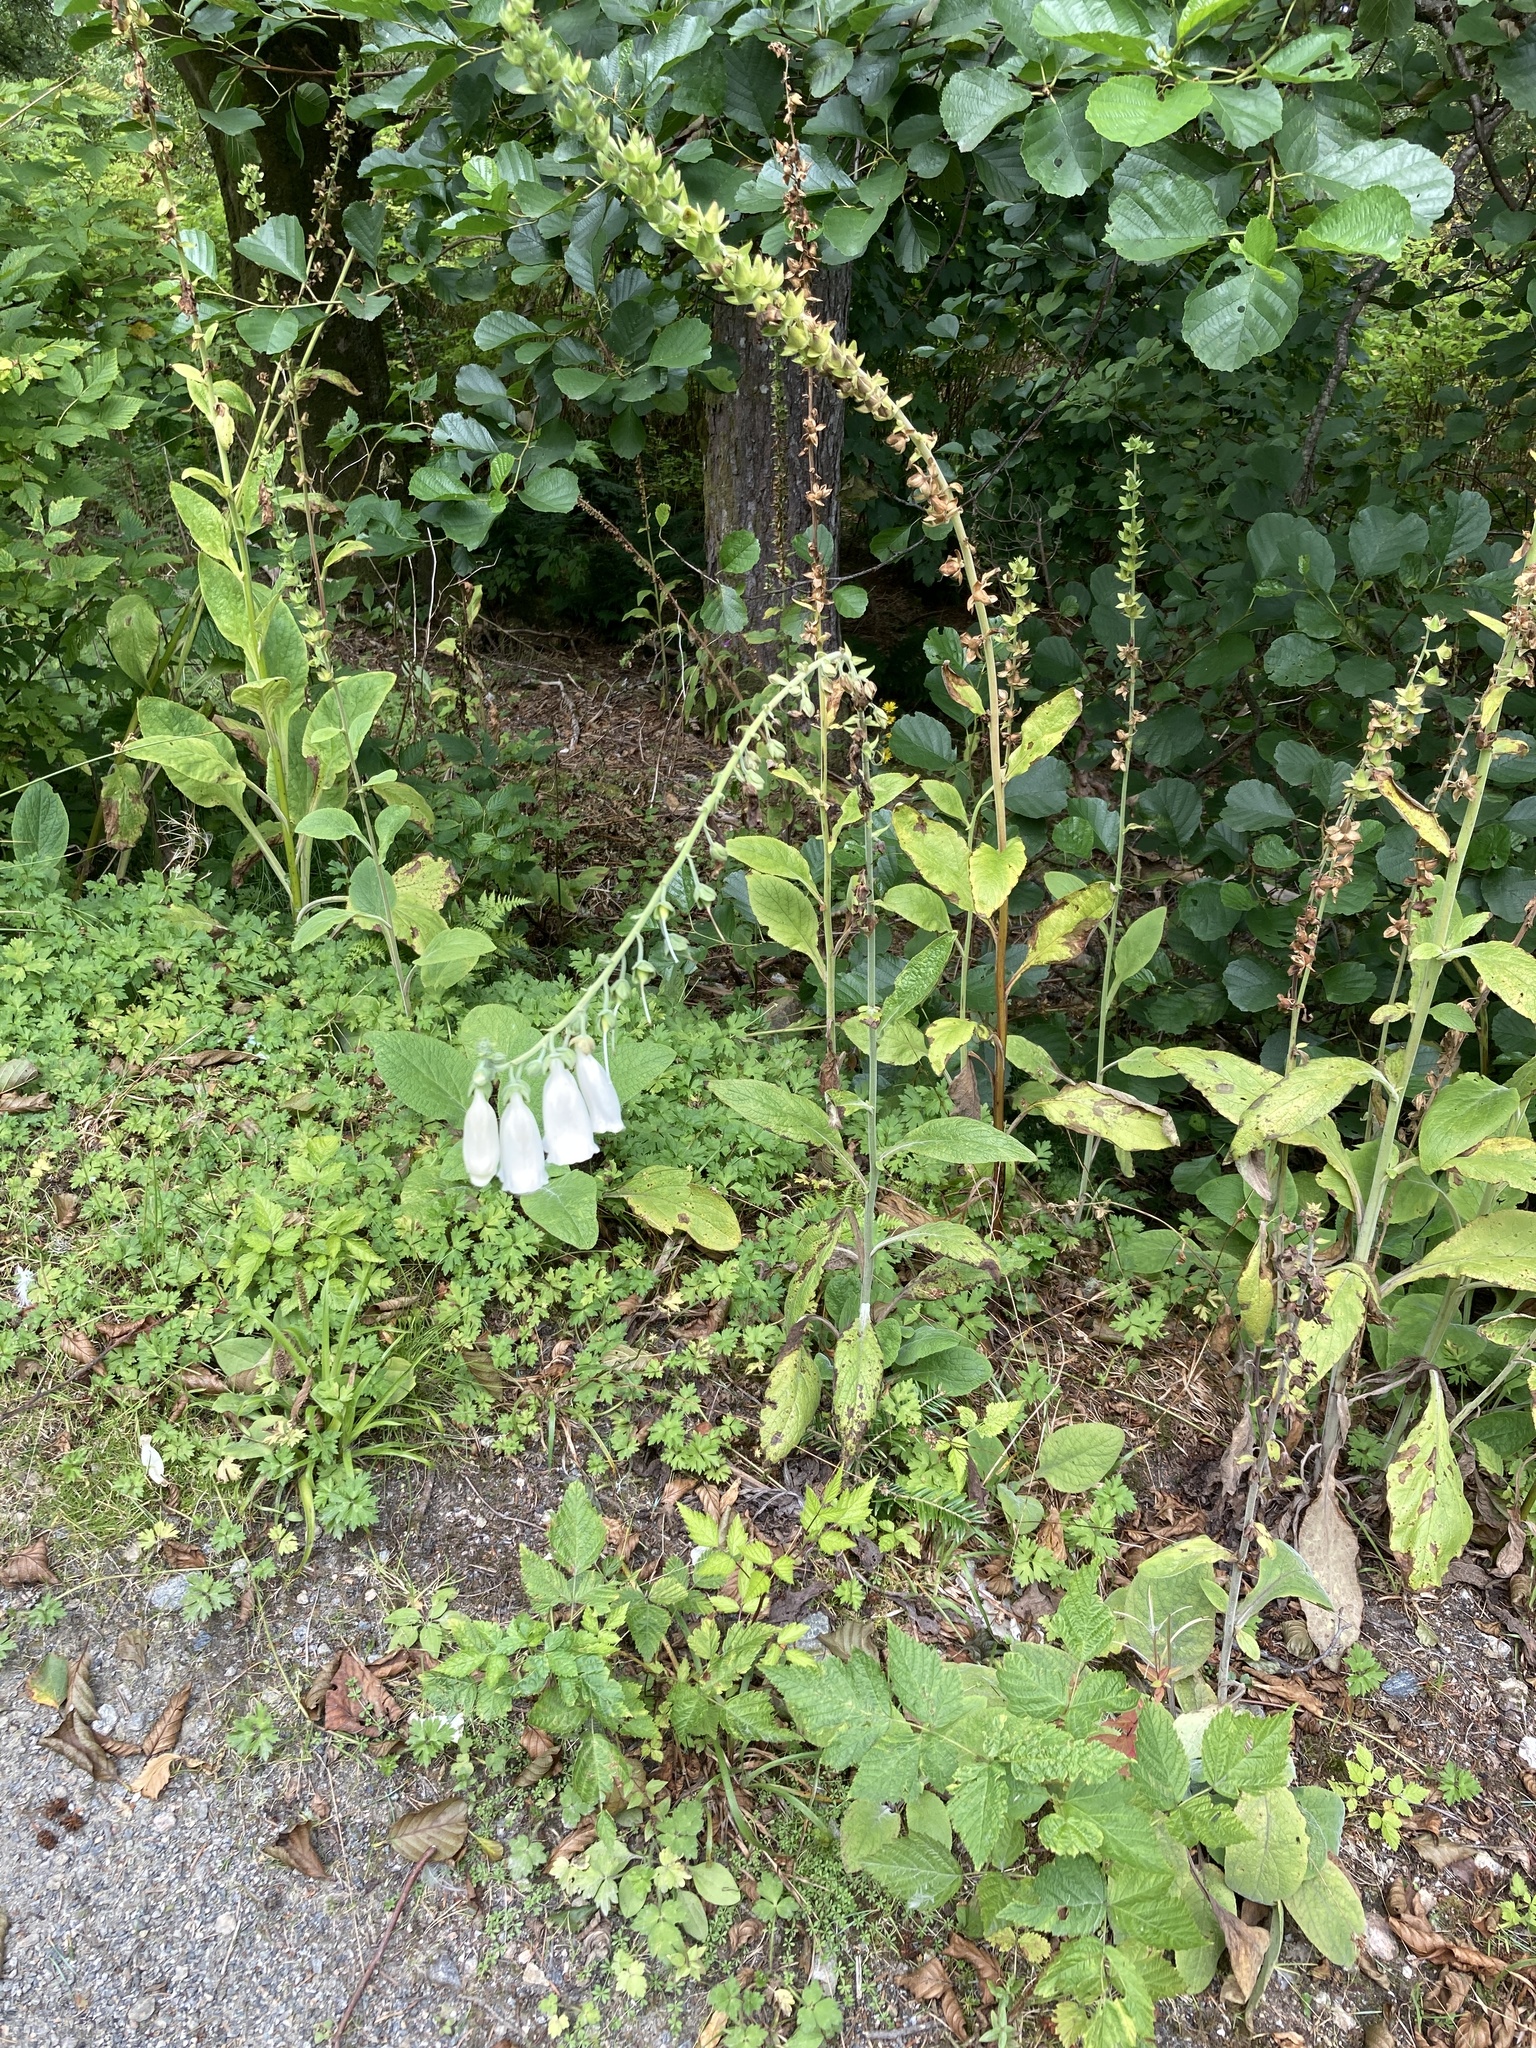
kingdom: Plantae
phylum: Tracheophyta
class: Magnoliopsida
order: Lamiales
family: Plantaginaceae
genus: Digitalis
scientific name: Digitalis purpurea
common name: Foxglove
